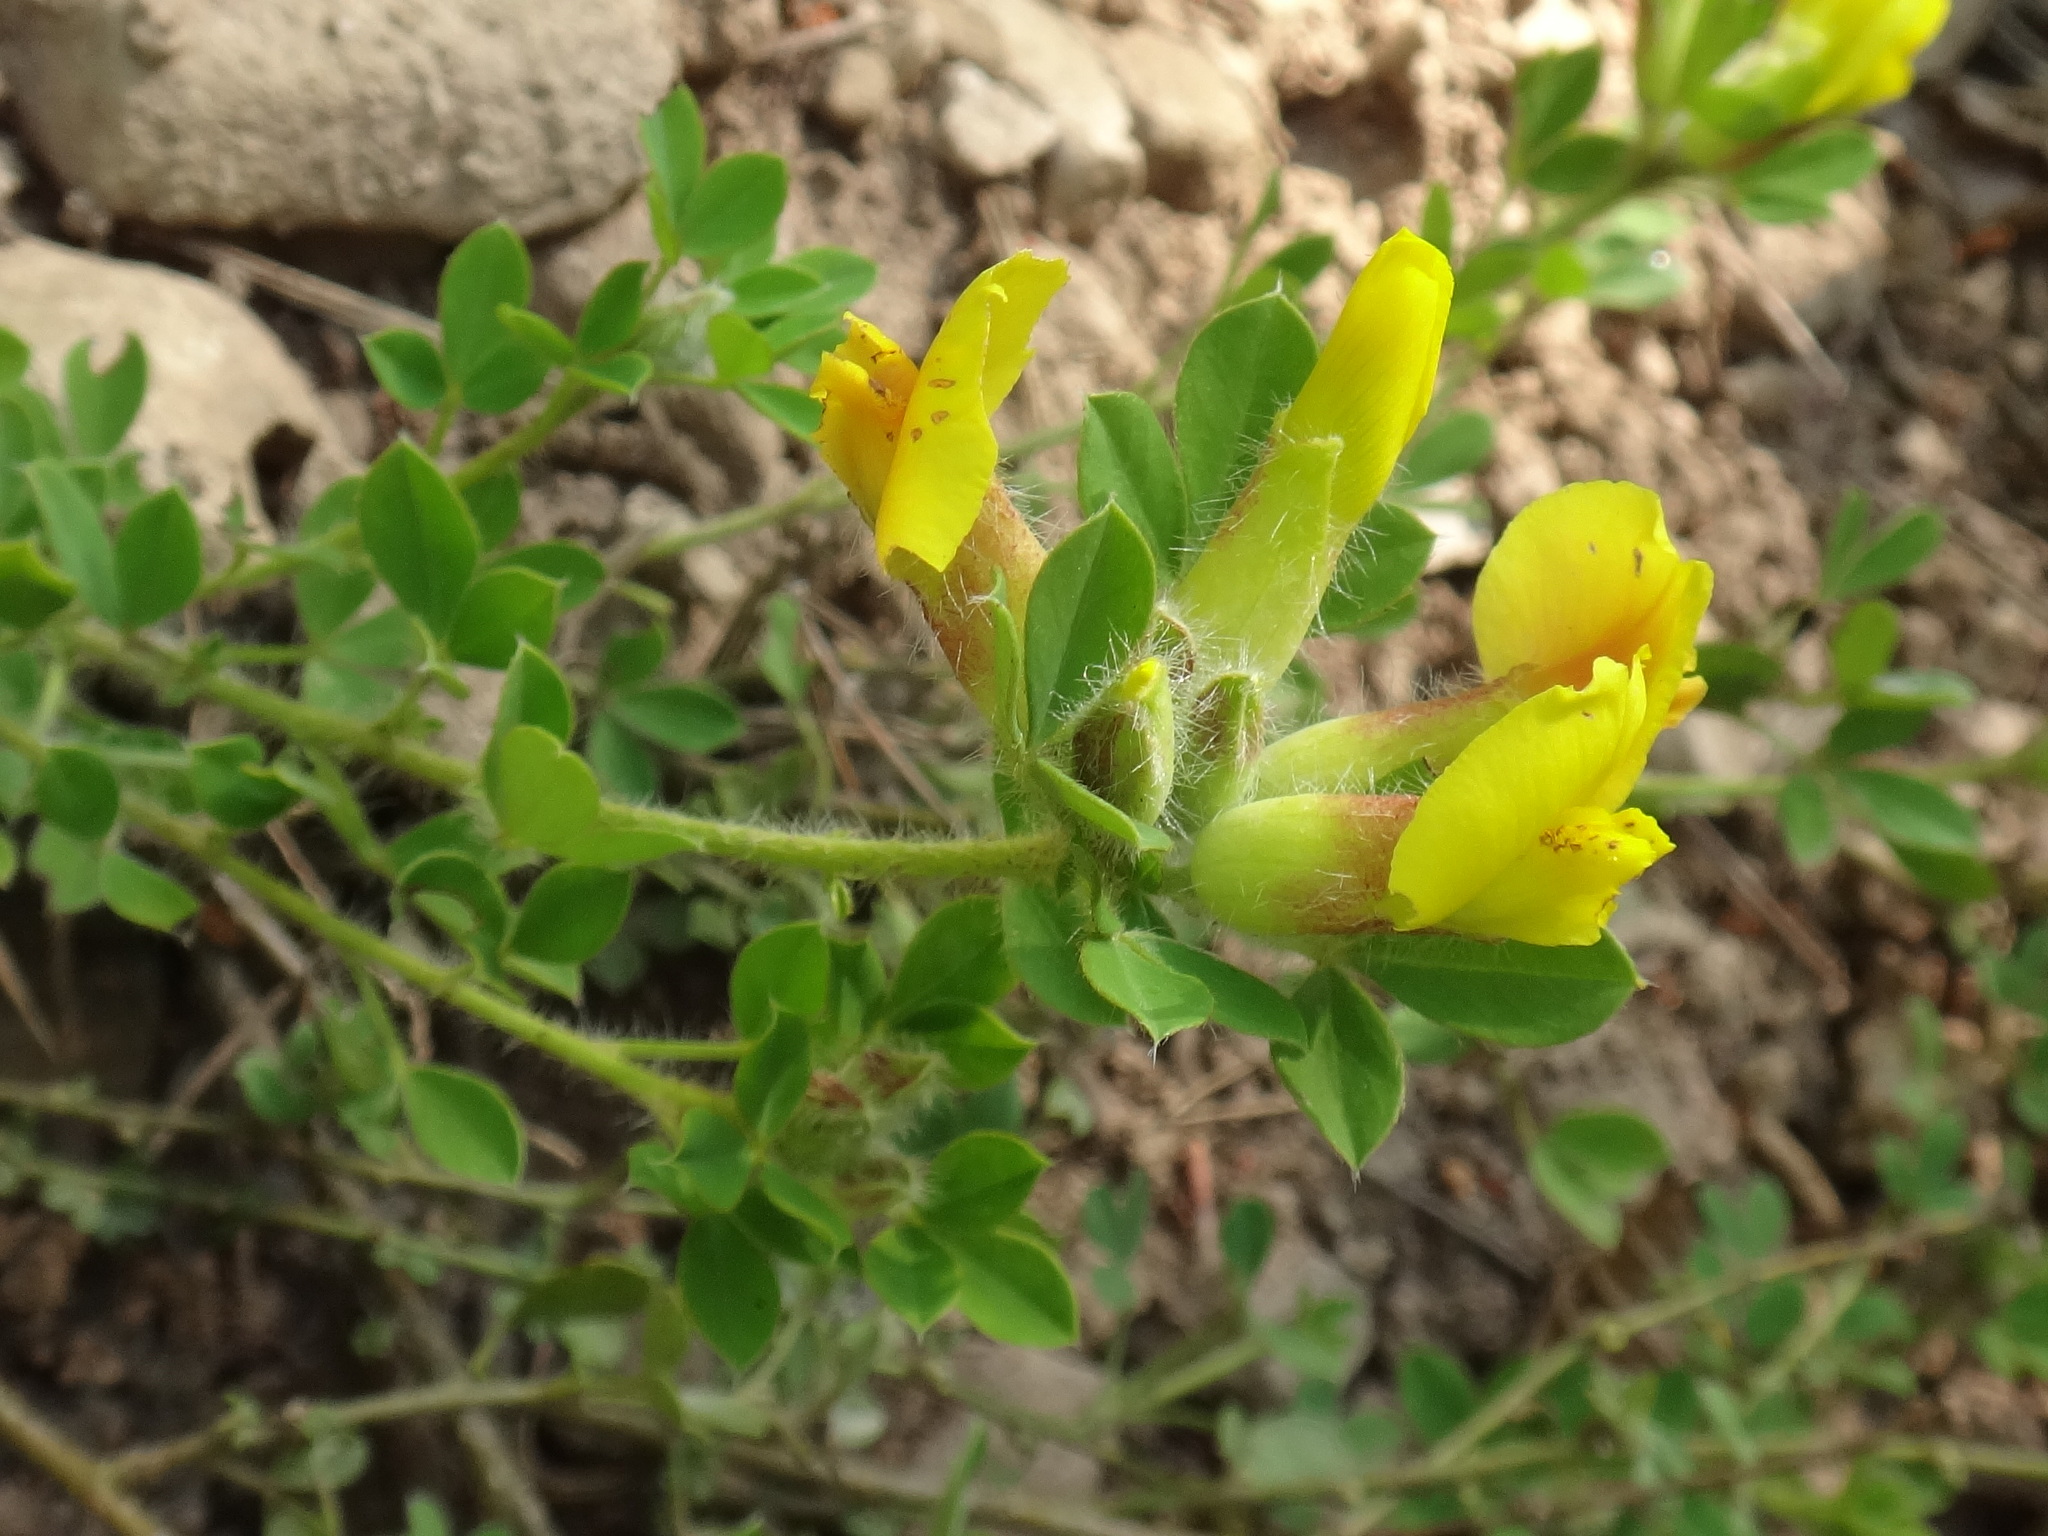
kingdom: Plantae
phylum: Tracheophyta
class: Magnoliopsida
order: Fabales
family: Fabaceae
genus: Chamaecytisus
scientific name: Chamaecytisus supinus
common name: Clustered broom
